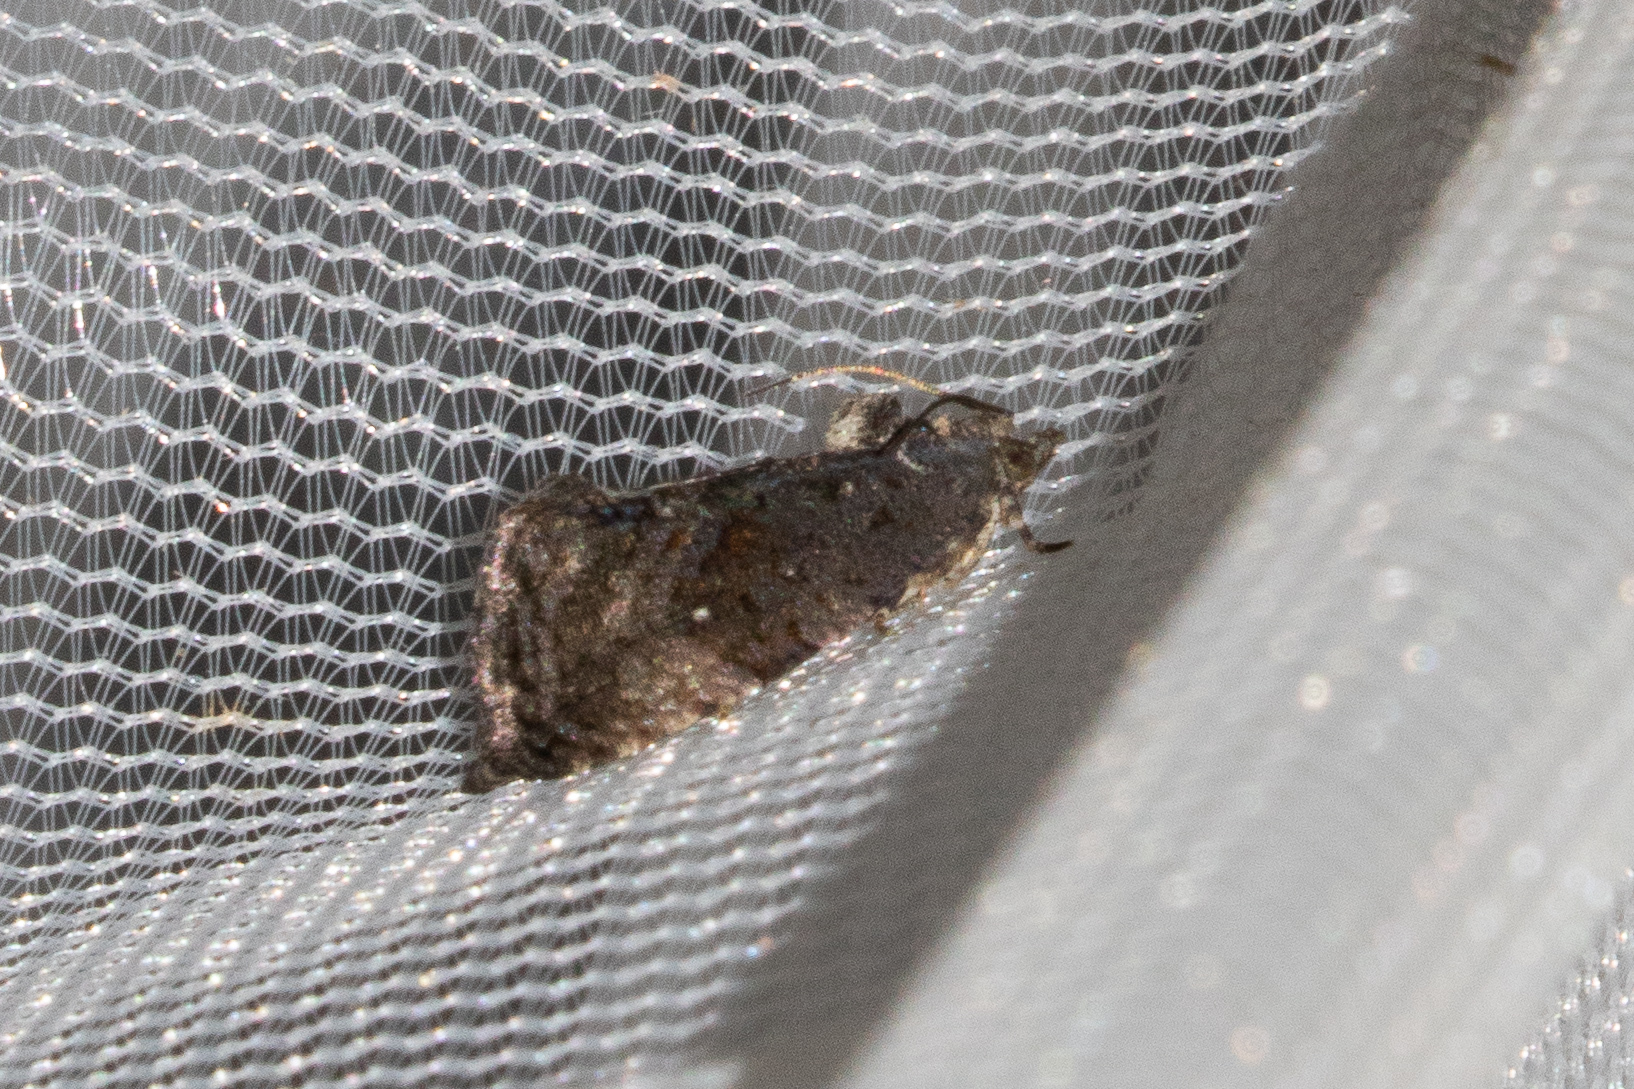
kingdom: Animalia
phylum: Arthropoda
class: Insecta
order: Lepidoptera
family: Tortricidae
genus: Gymnandrosoma
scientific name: Gymnandrosoma punctidiscanum
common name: Dotted ecdytolopha moth
